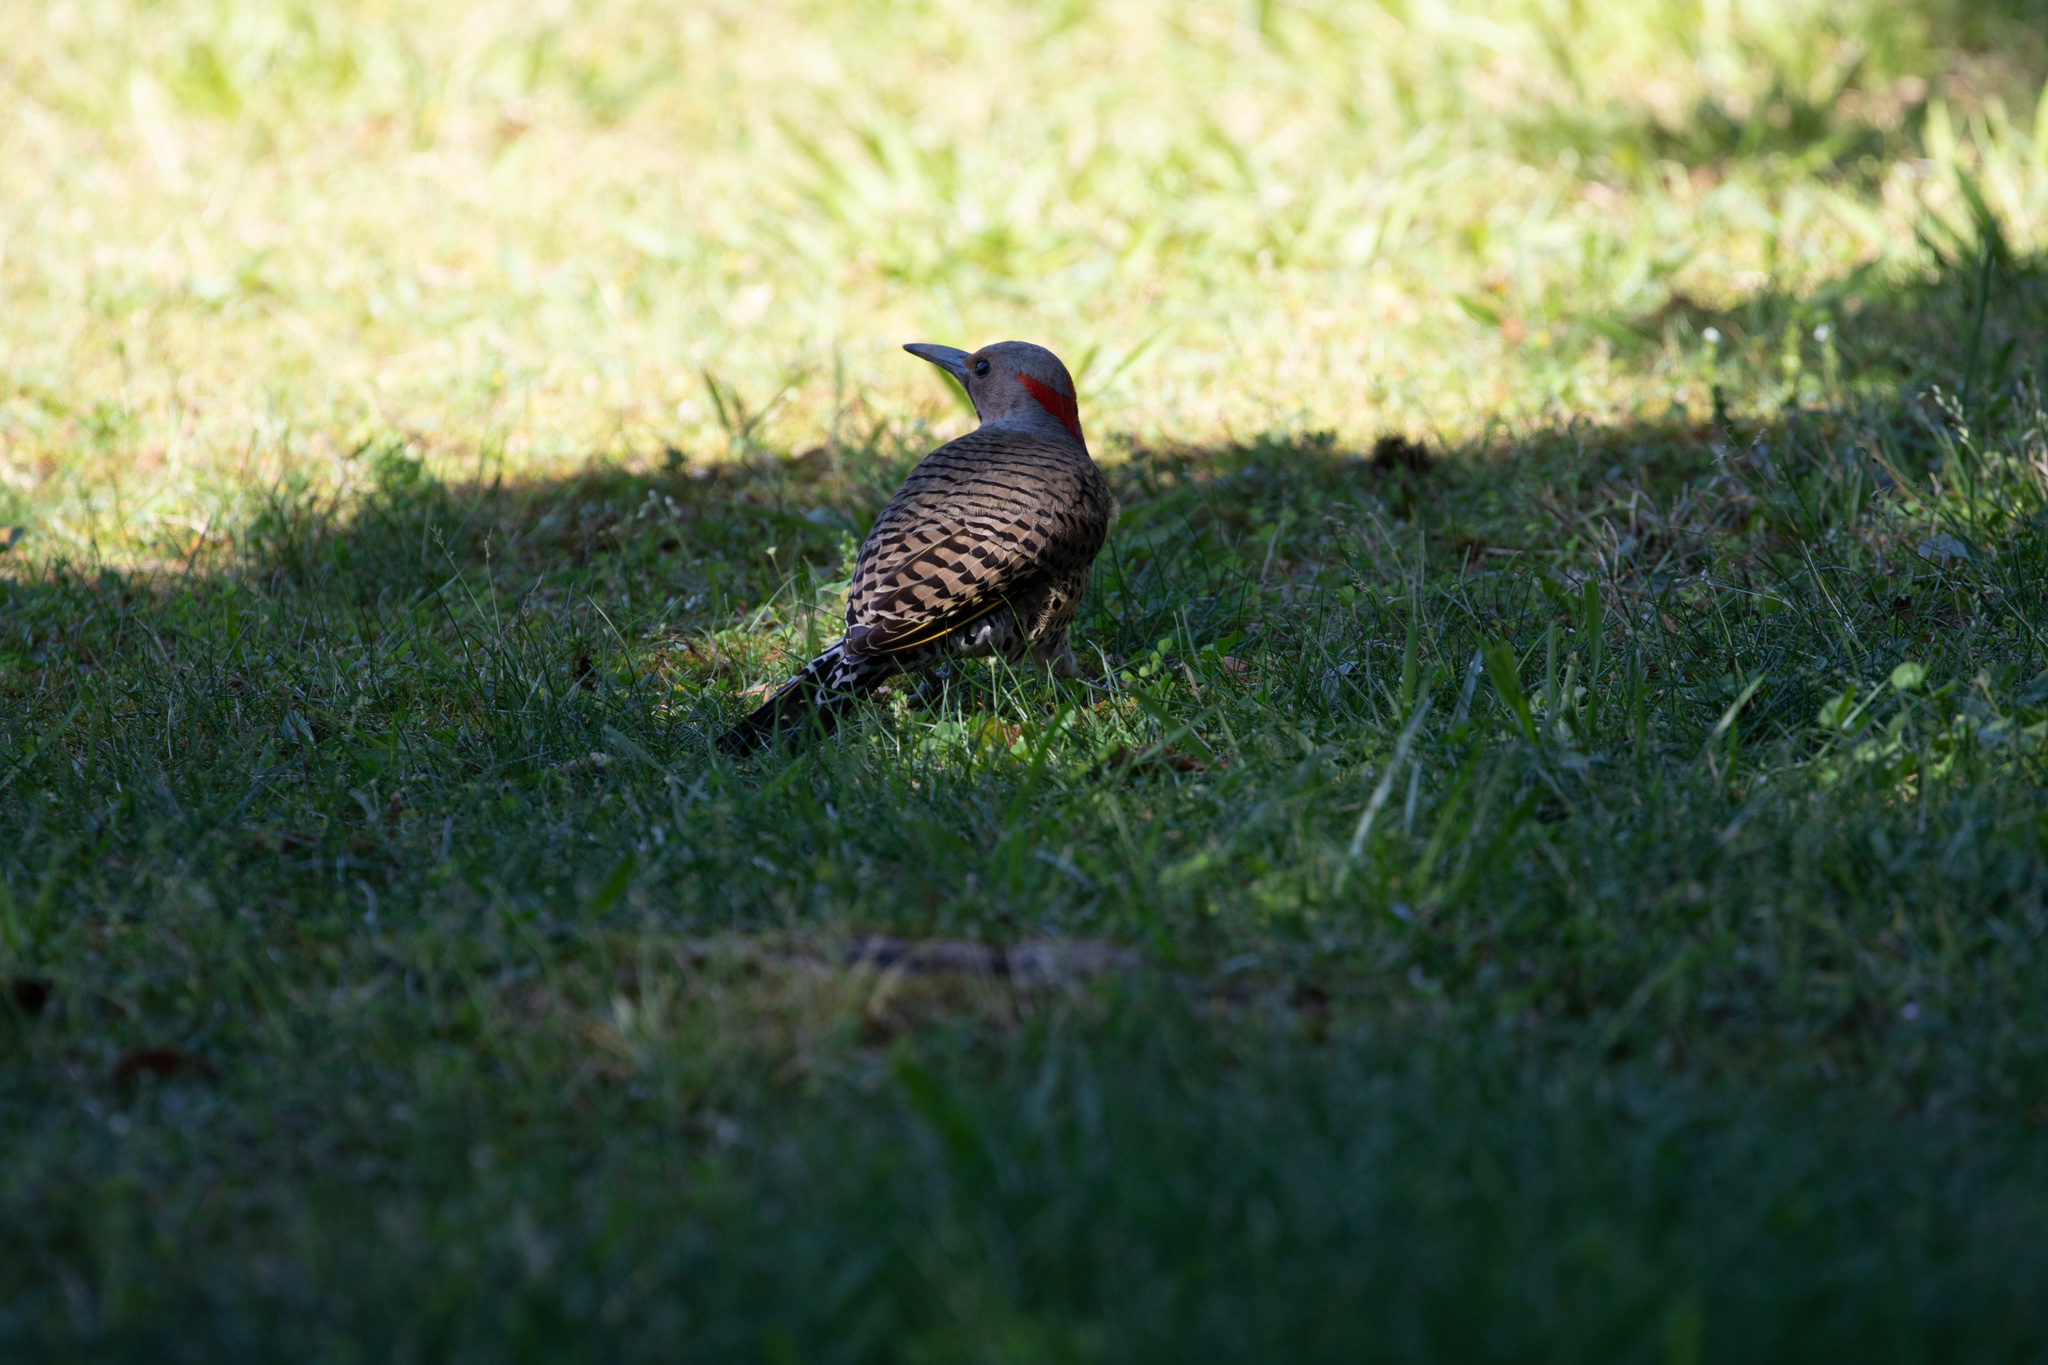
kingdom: Animalia
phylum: Chordata
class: Aves
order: Piciformes
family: Picidae
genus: Colaptes
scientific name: Colaptes auratus
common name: Northern flicker
